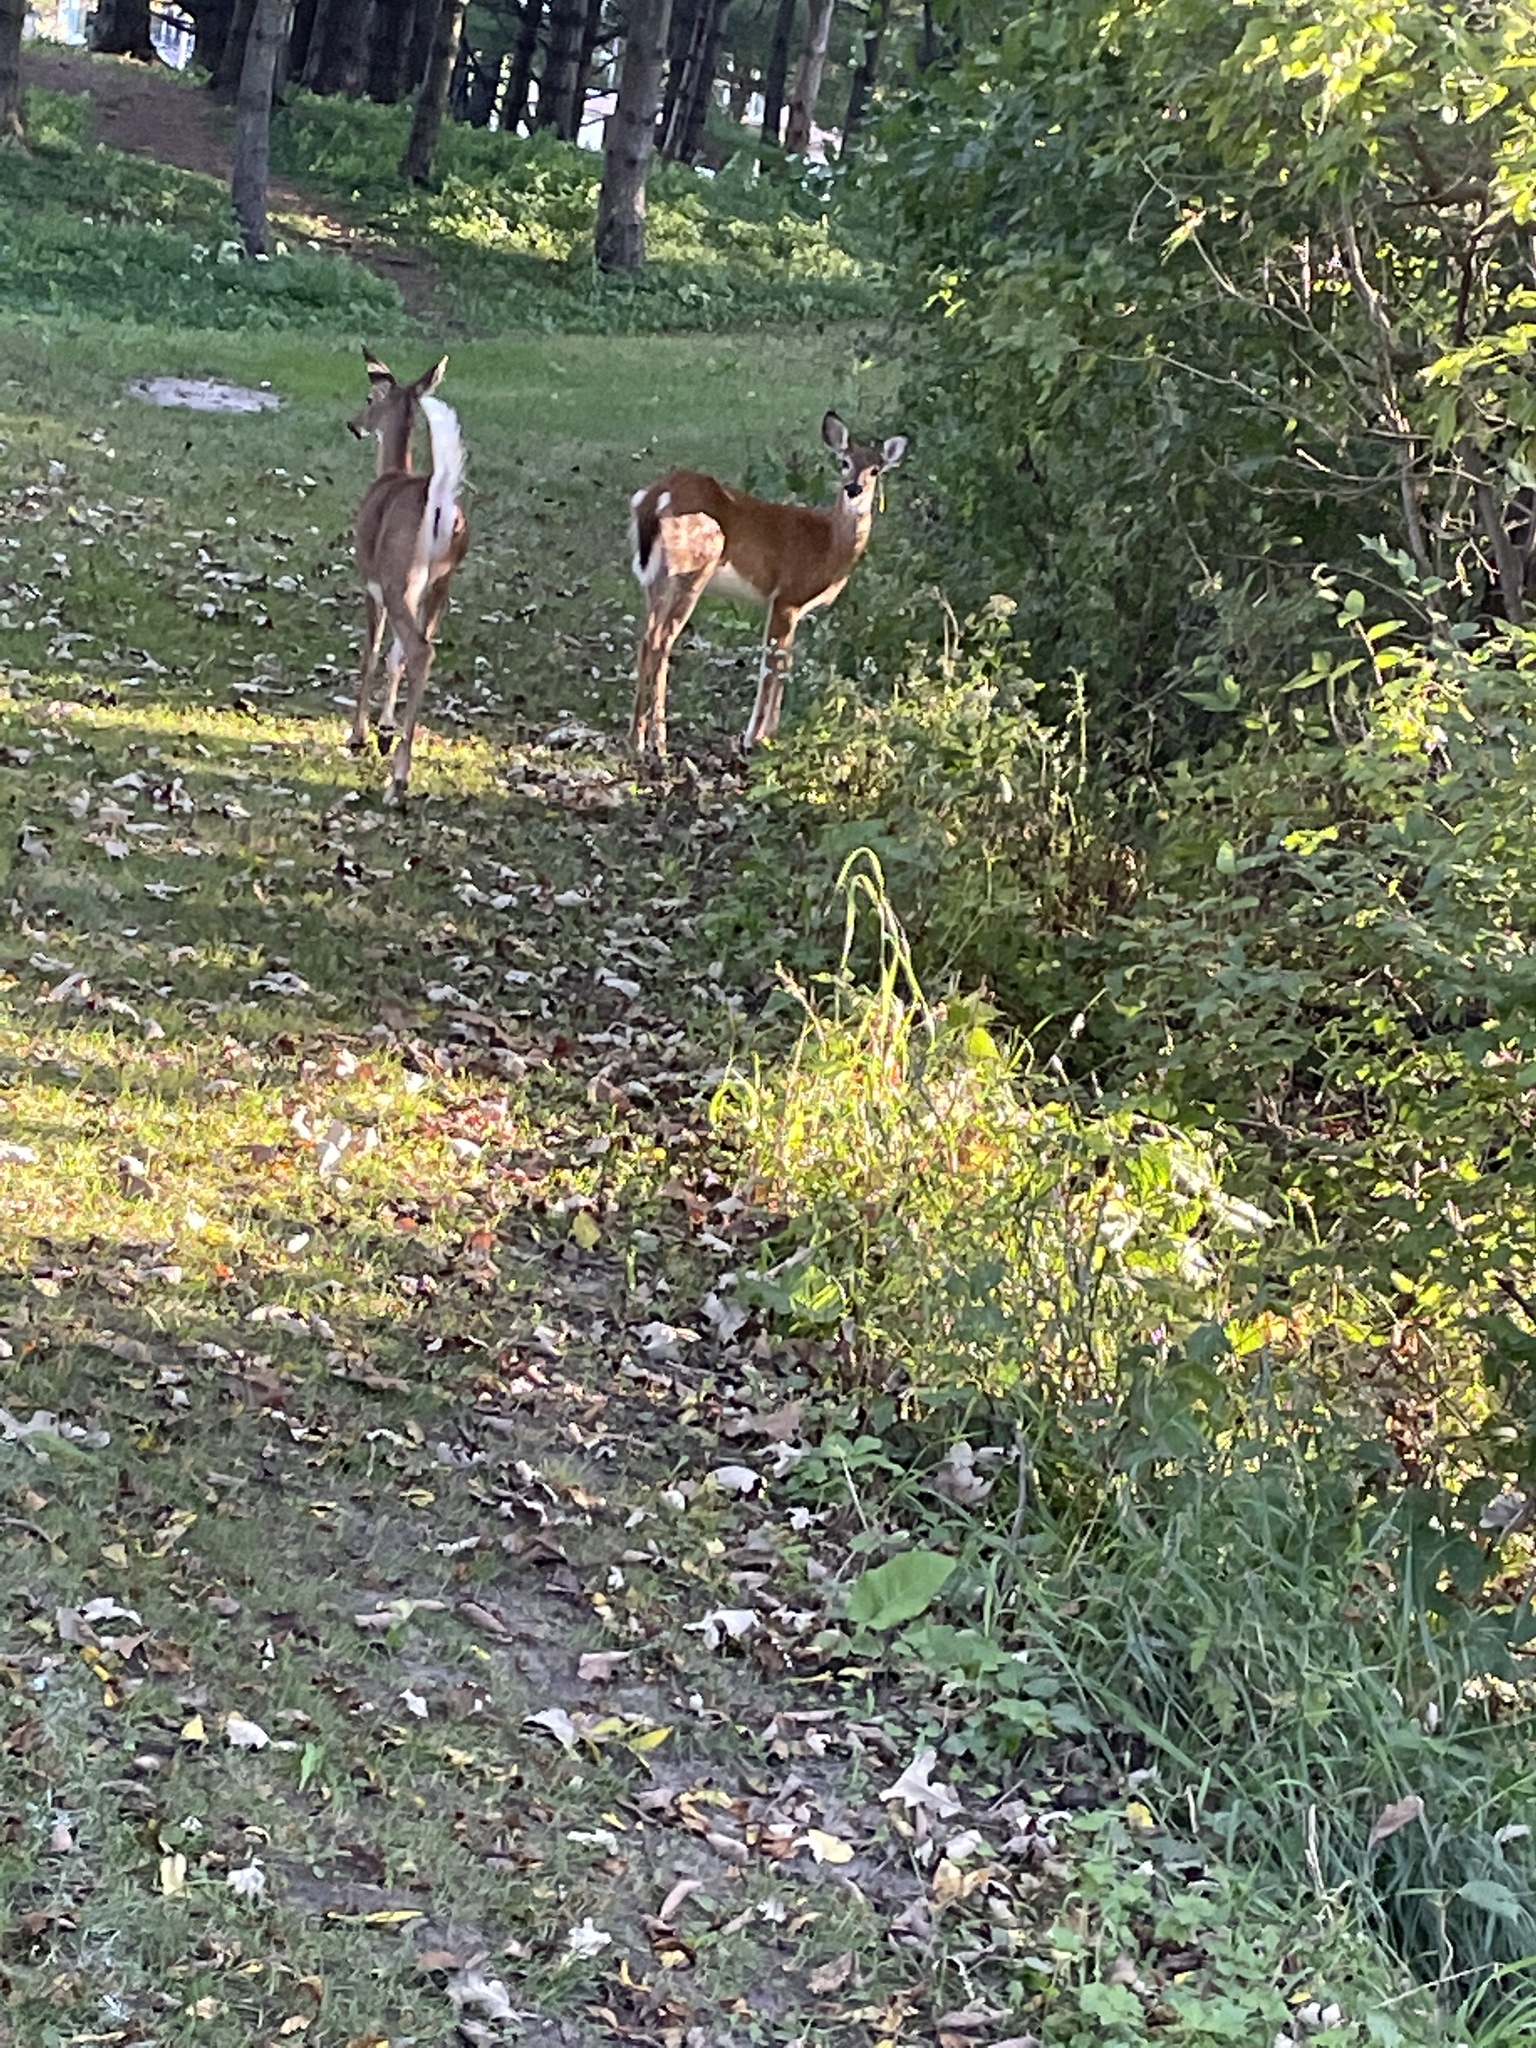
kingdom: Animalia
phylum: Chordata
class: Mammalia
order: Artiodactyla
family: Cervidae
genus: Odocoileus
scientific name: Odocoileus virginianus
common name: White-tailed deer
